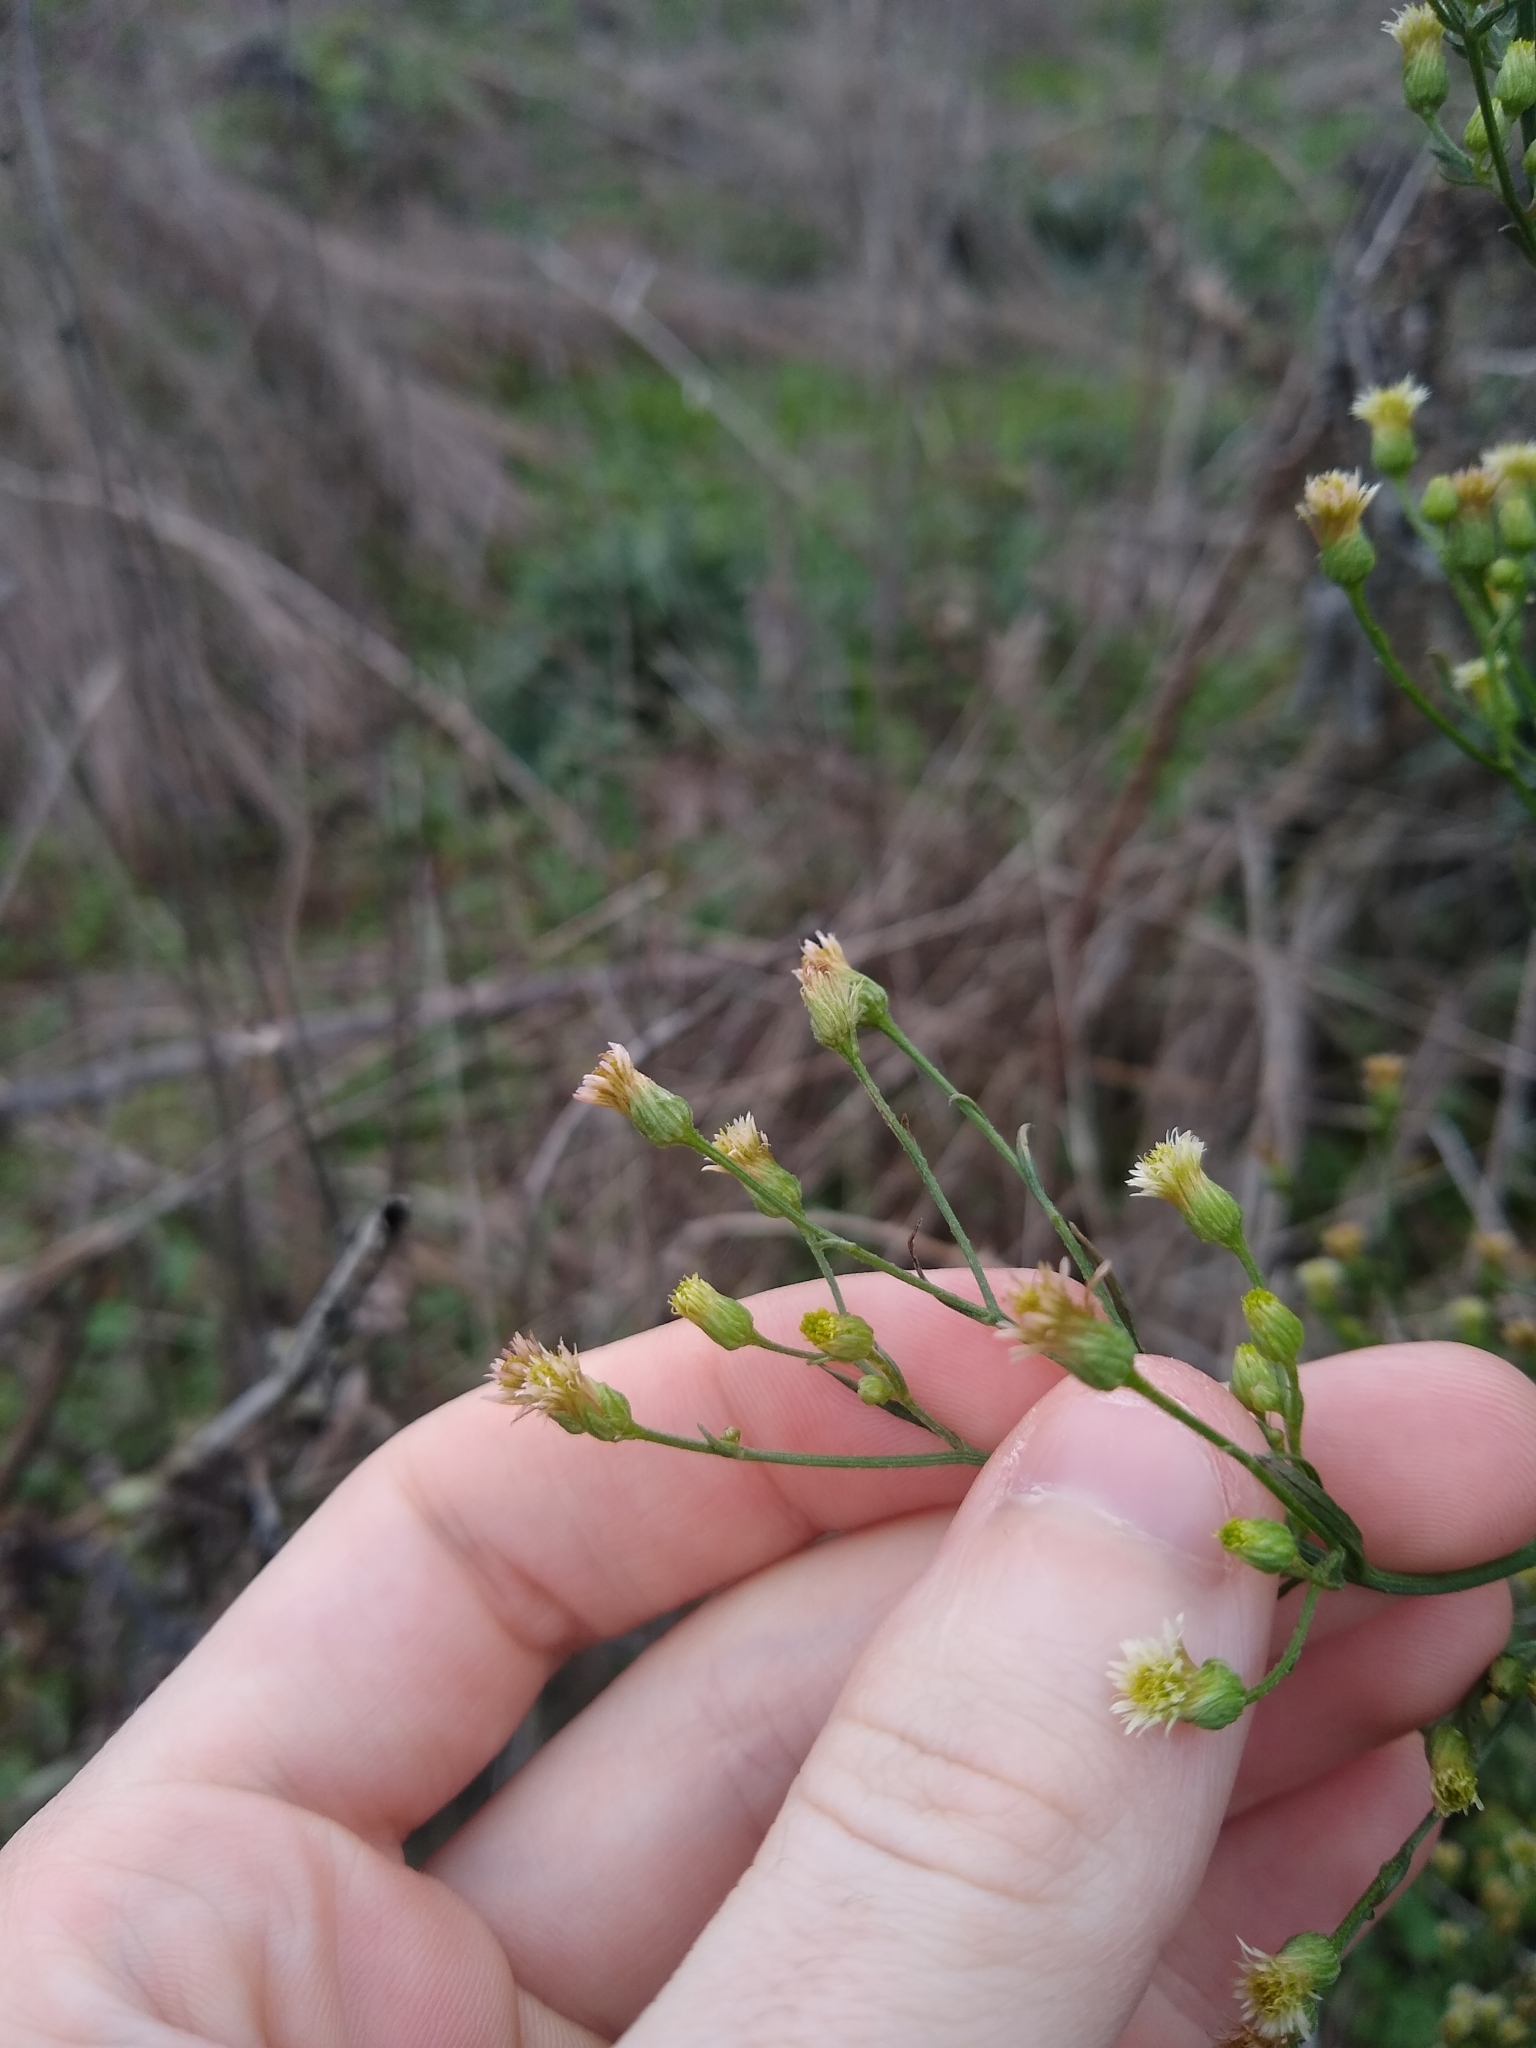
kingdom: Plantae
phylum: Tracheophyta
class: Magnoliopsida
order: Asterales
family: Asteraceae
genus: Erigeron
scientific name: Erigeron canadensis
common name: Canadian fleabane
